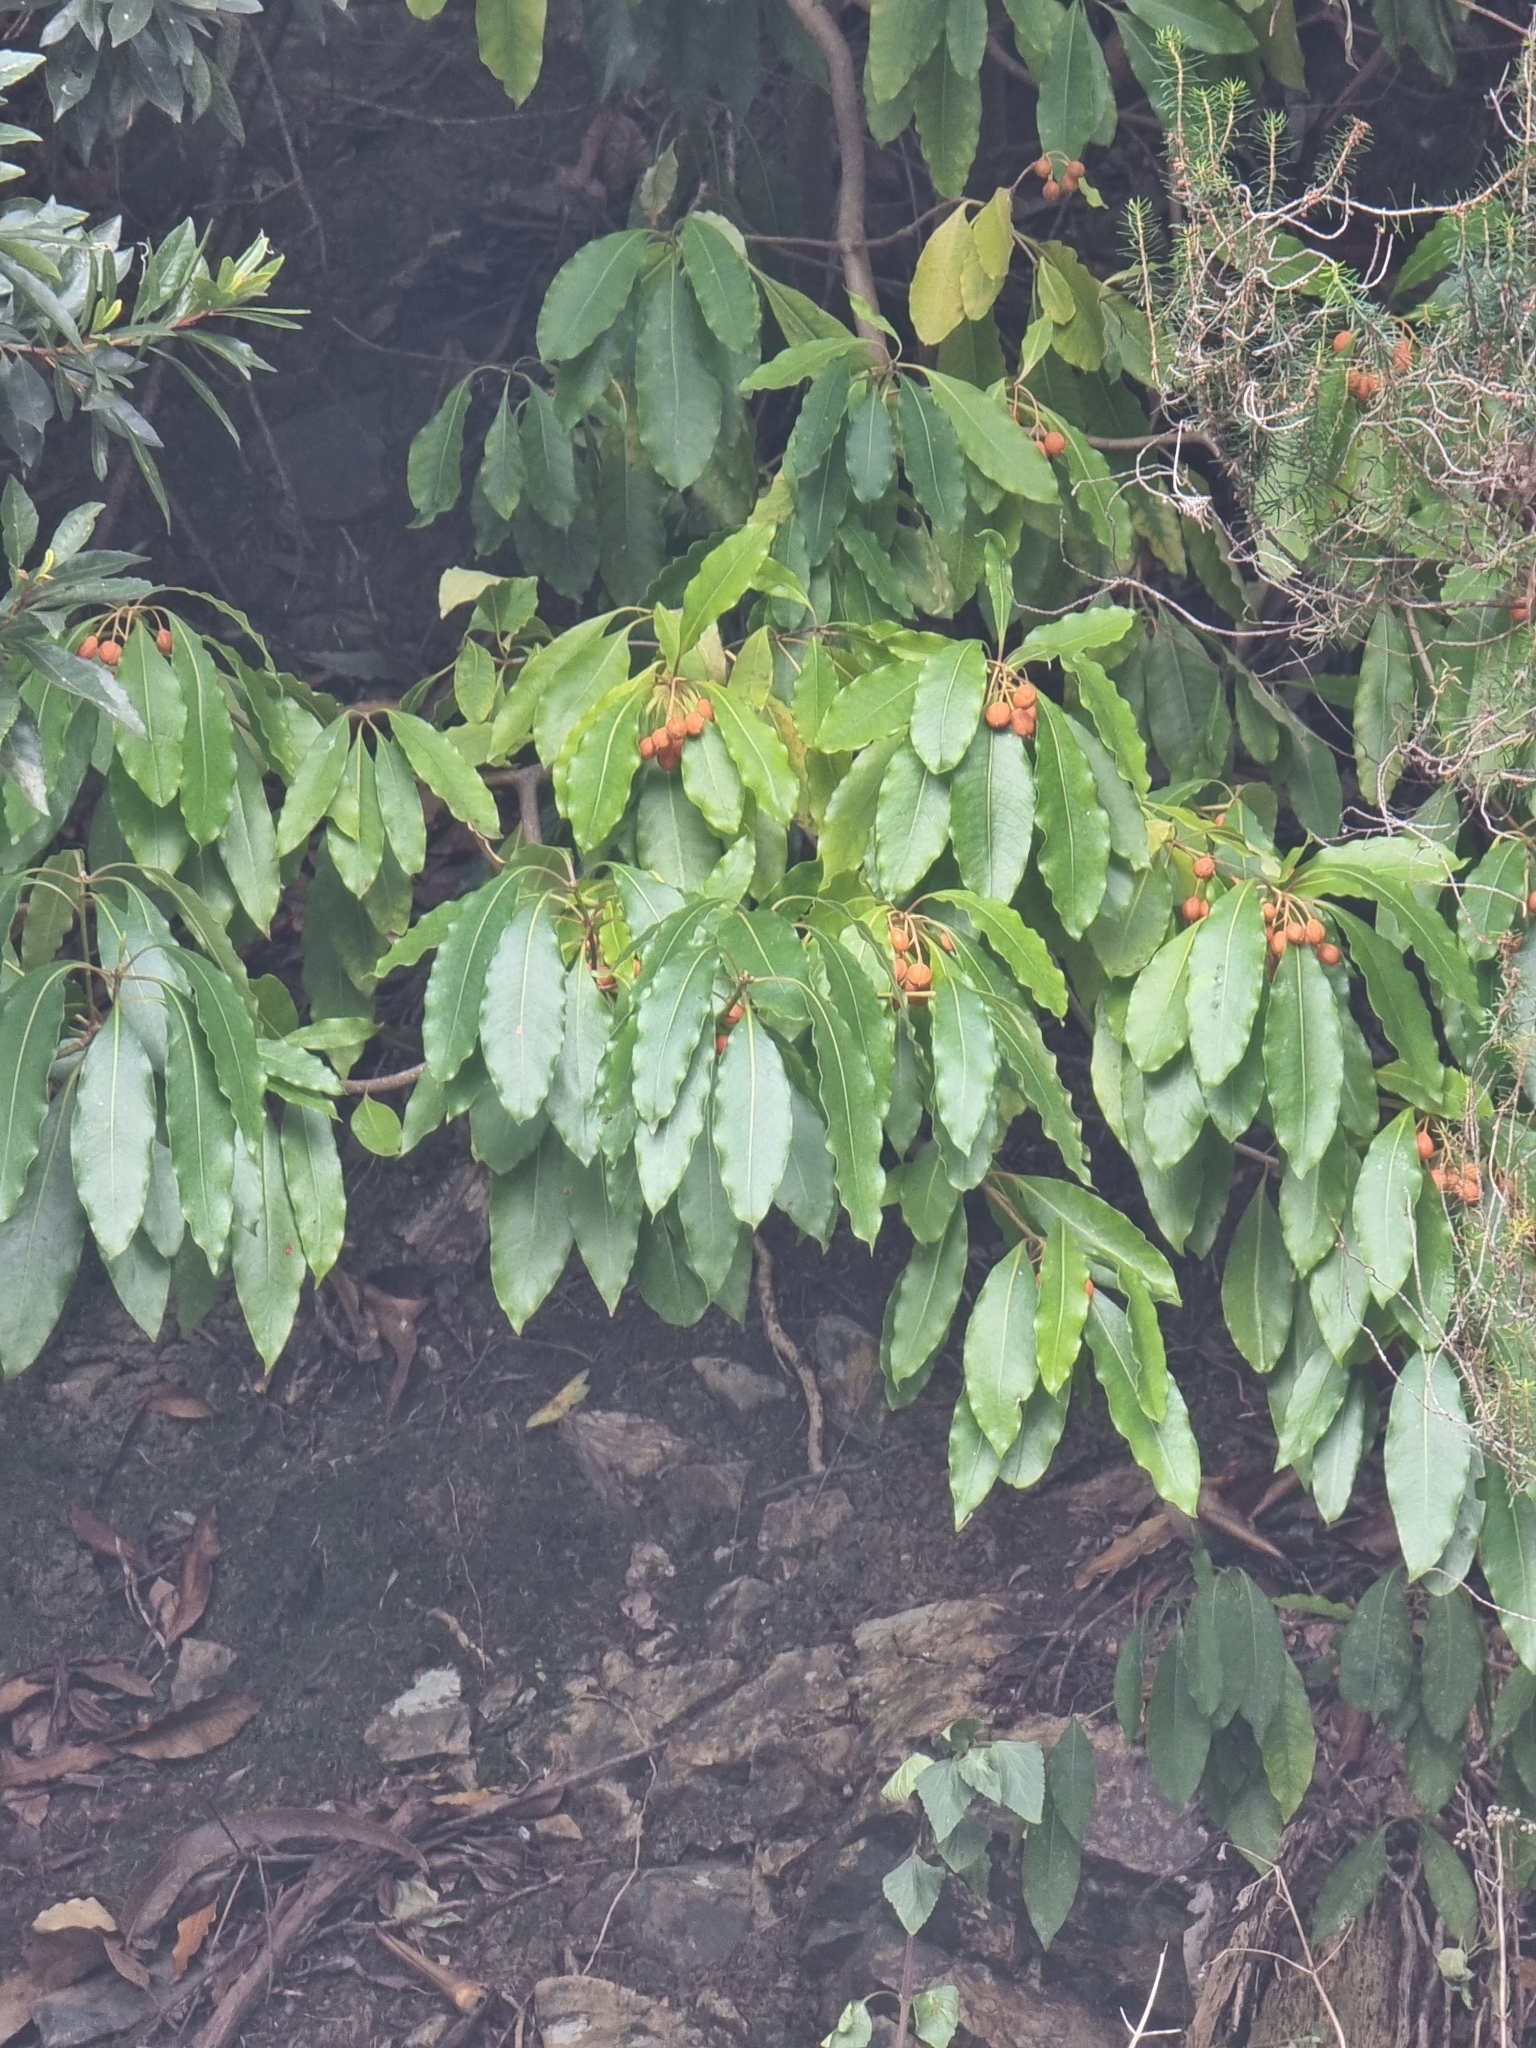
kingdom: Plantae
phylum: Tracheophyta
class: Magnoliopsida
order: Apiales
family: Pittosporaceae
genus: Pittosporum
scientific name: Pittosporum undulatum
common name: Australian cheesewood
